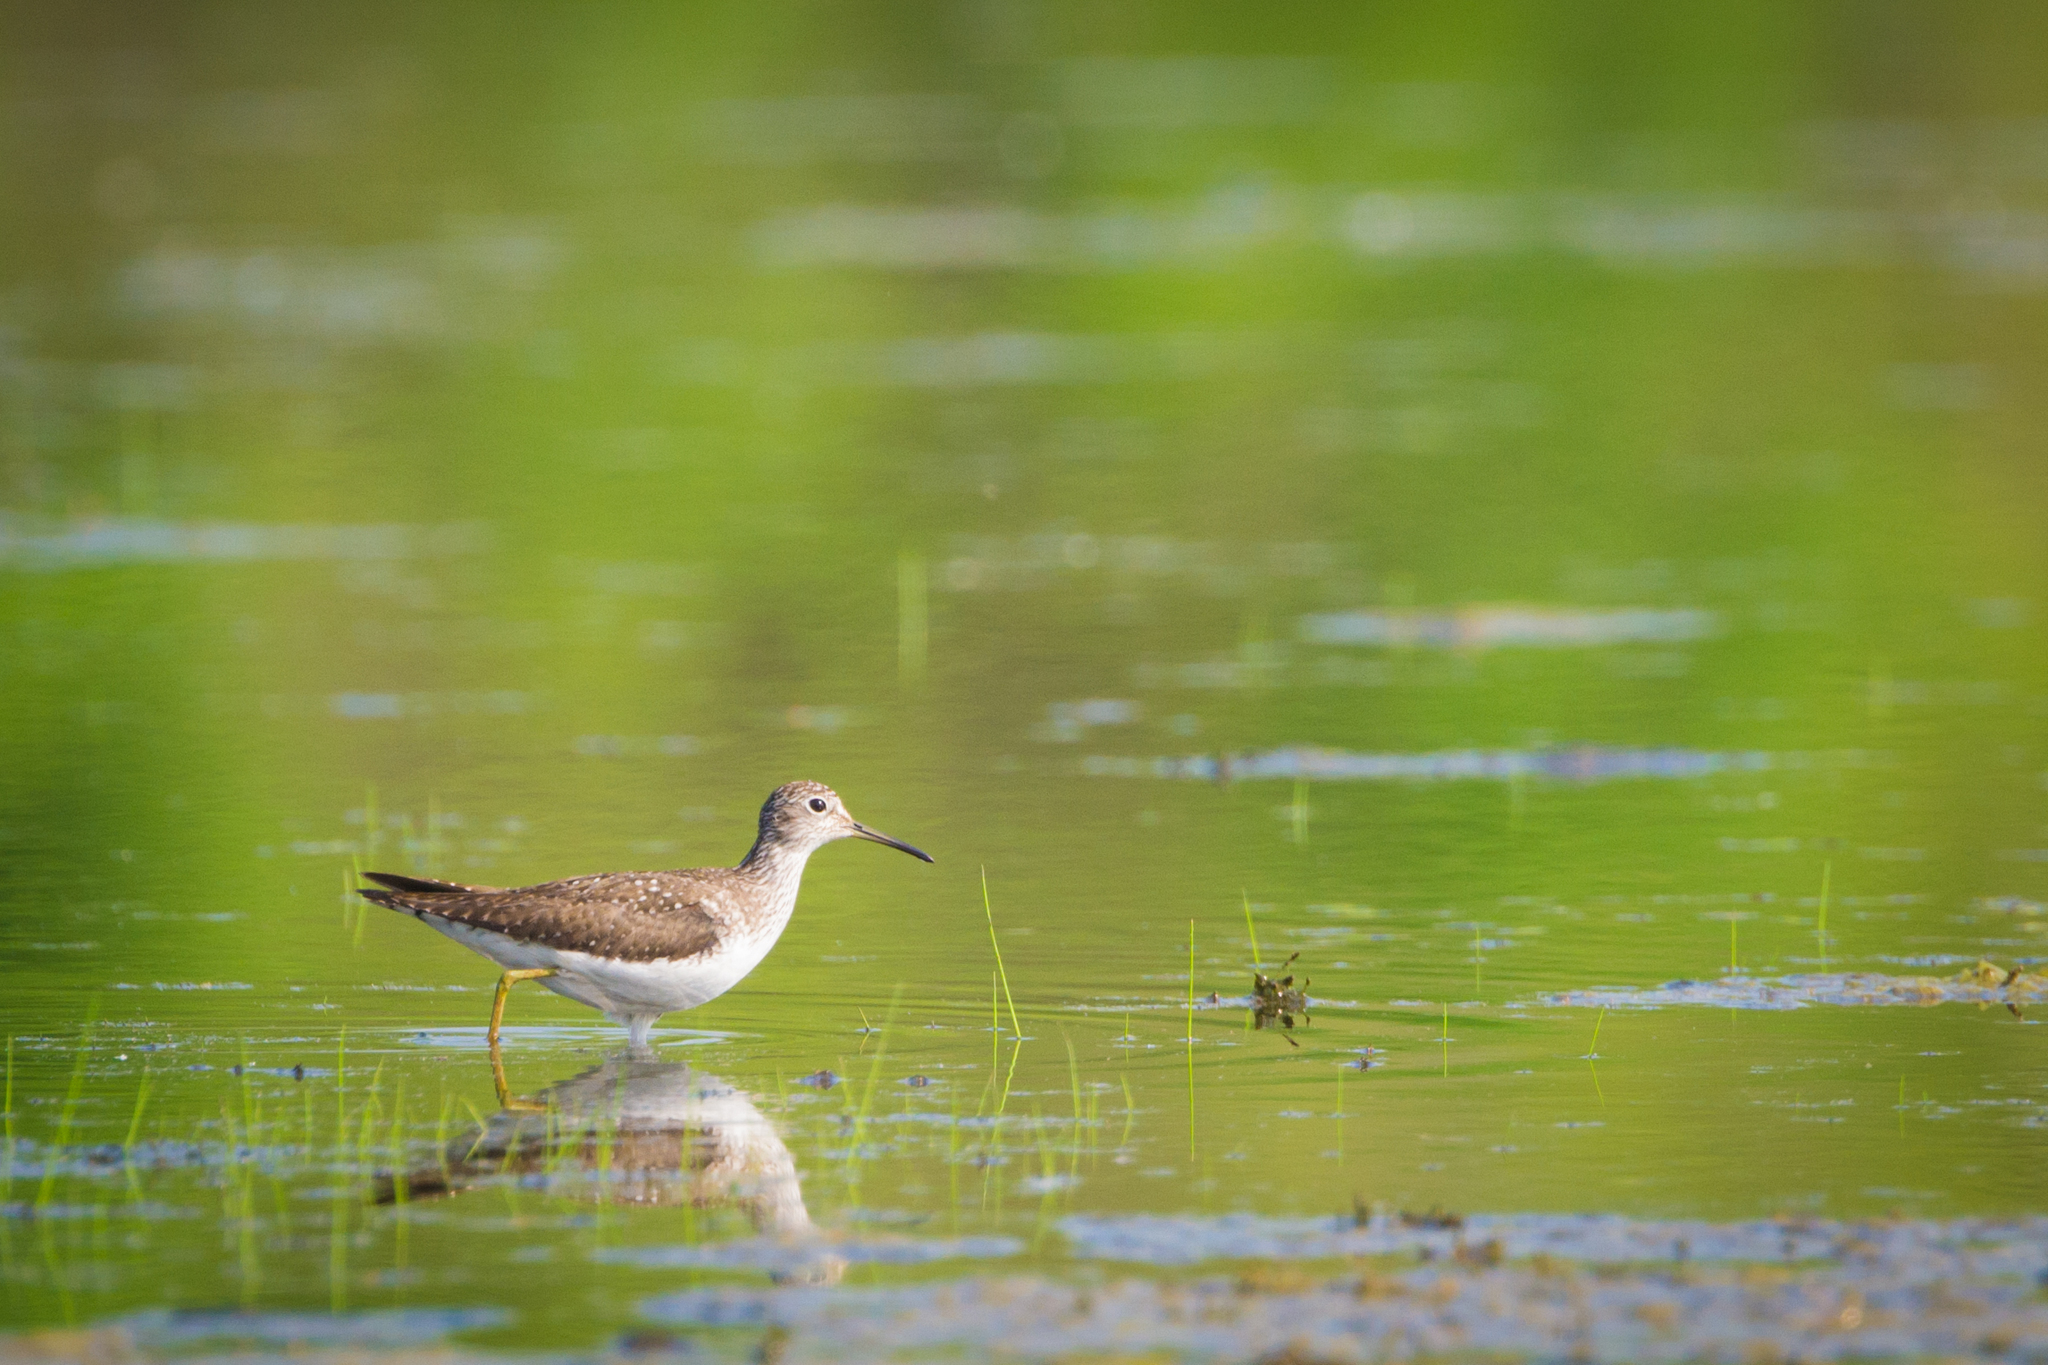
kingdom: Animalia
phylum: Chordata
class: Aves
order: Charadriiformes
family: Scolopacidae
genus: Tringa
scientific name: Tringa solitaria
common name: Solitary sandpiper
